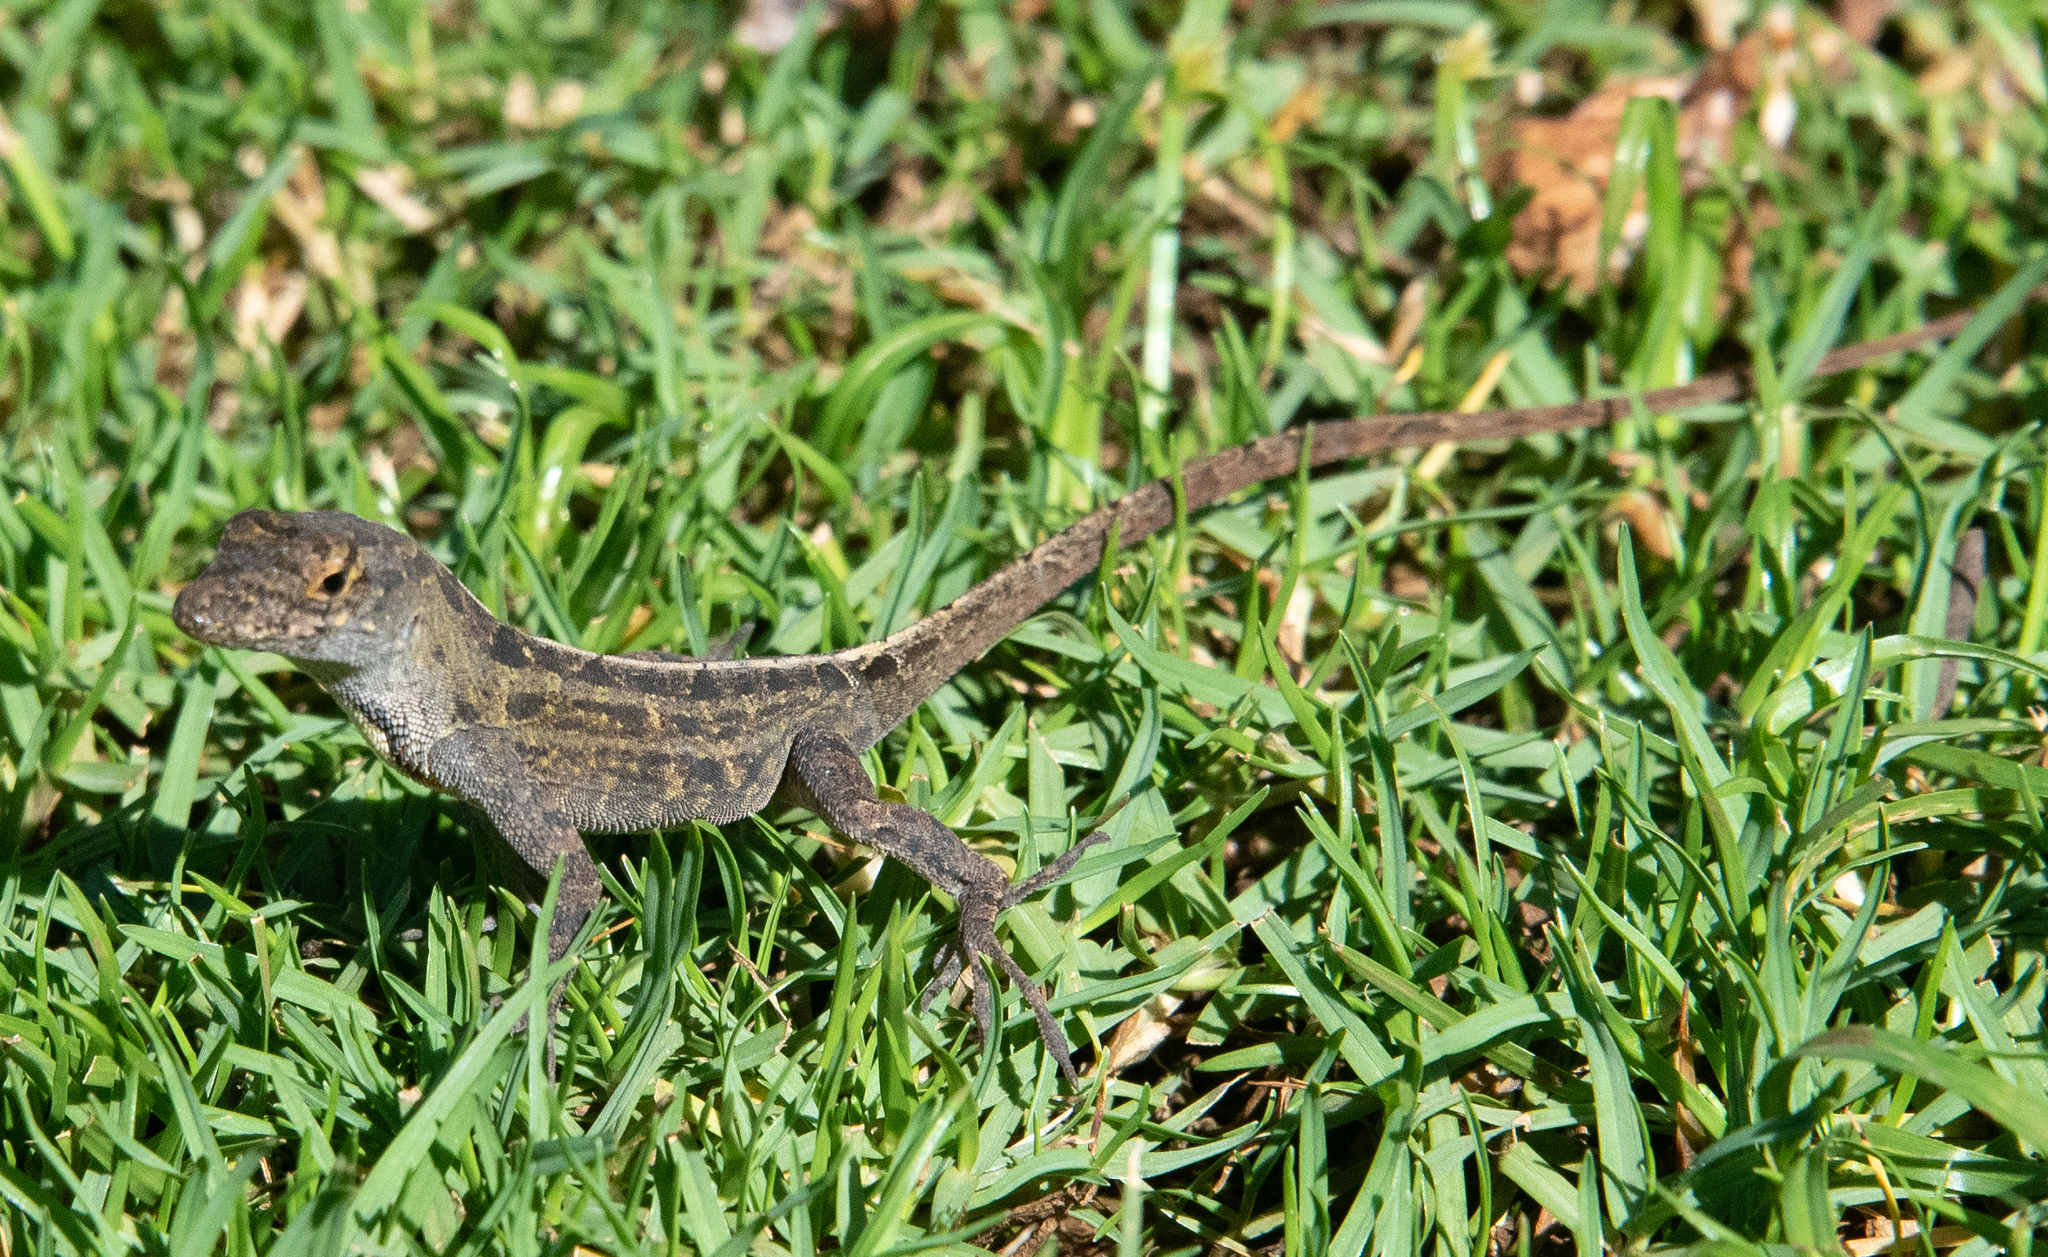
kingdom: Animalia
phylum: Chordata
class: Squamata
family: Dactyloidae
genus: Anolis
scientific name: Anolis sagrei
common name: Brown anole
